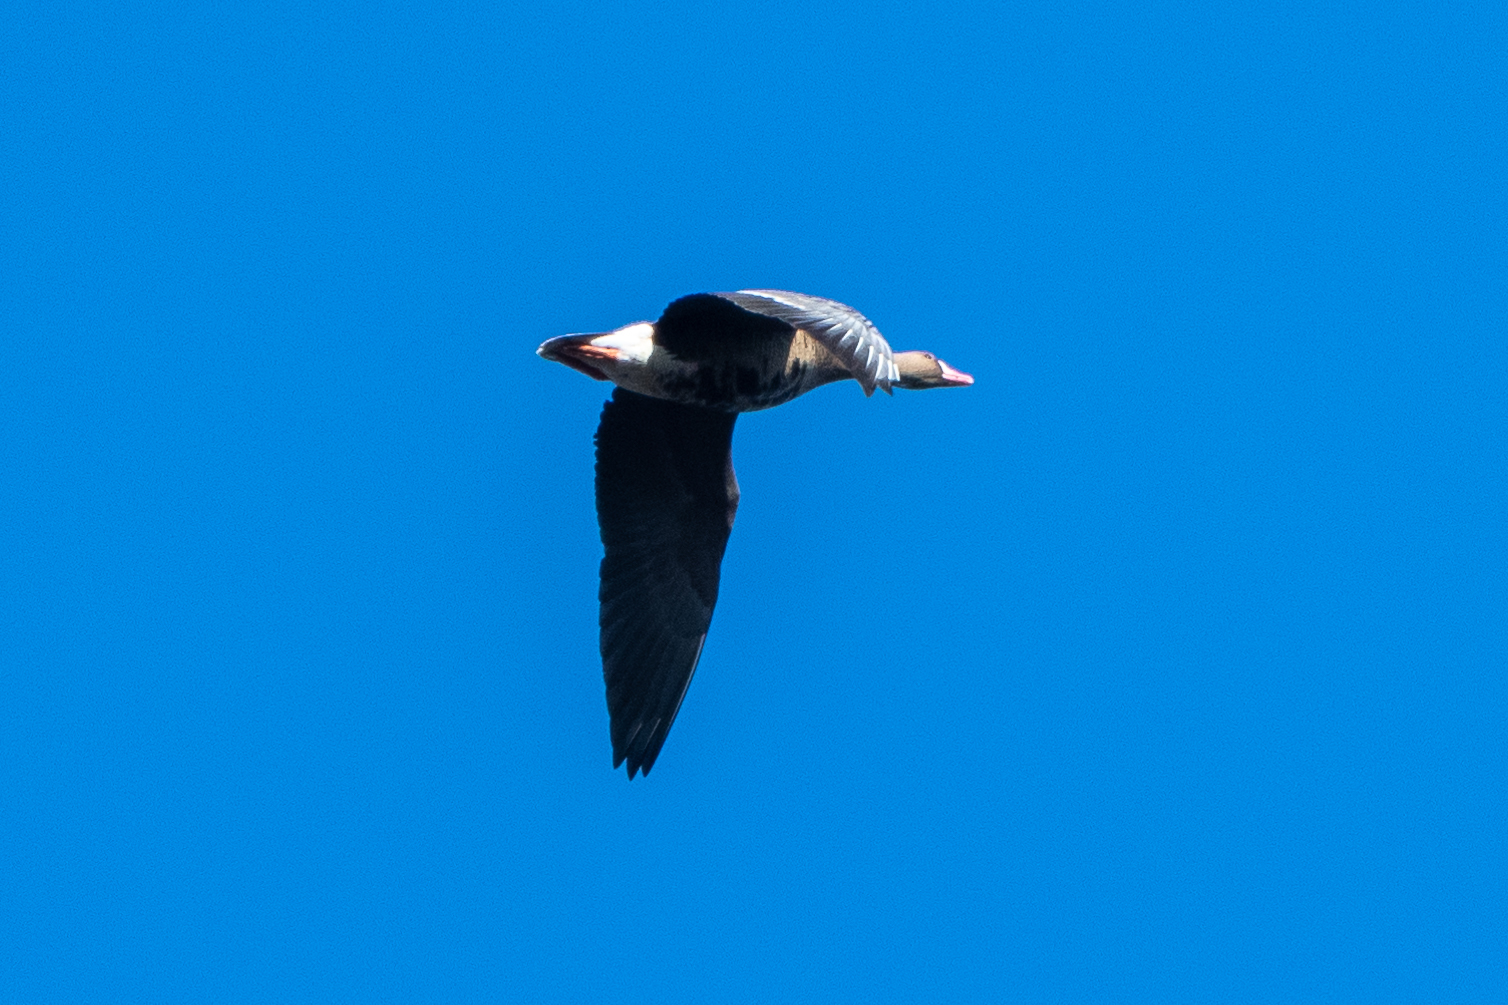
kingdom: Animalia
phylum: Chordata
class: Aves
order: Anseriformes
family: Anatidae
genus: Anser
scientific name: Anser albifrons
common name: Greater white-fronted goose
